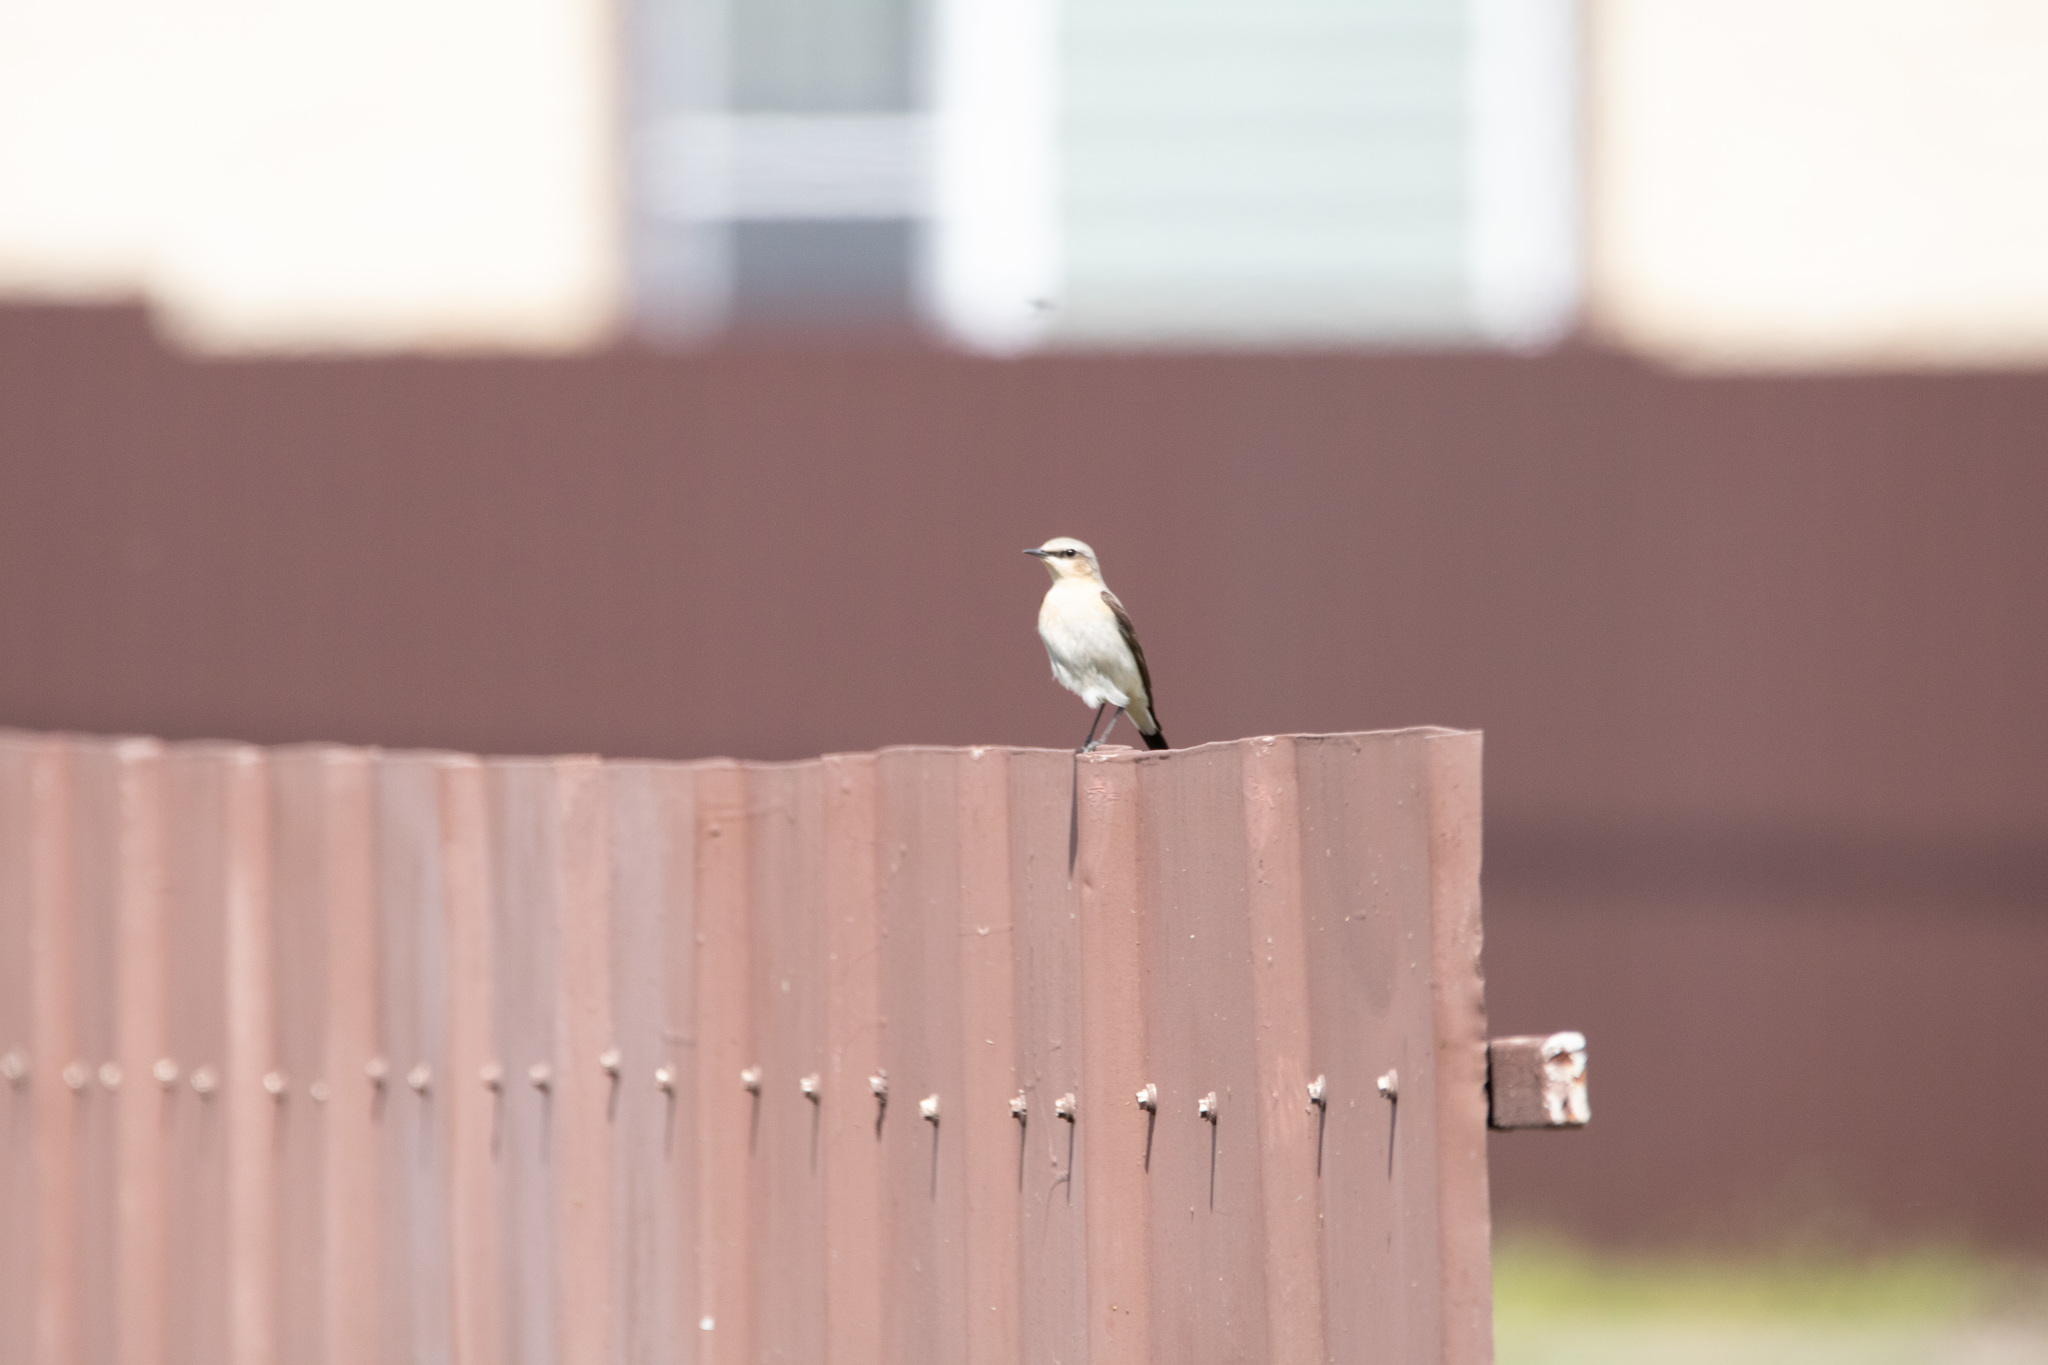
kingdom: Animalia
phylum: Chordata
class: Aves
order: Passeriformes
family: Muscicapidae
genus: Oenanthe
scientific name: Oenanthe oenanthe
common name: Northern wheatear
